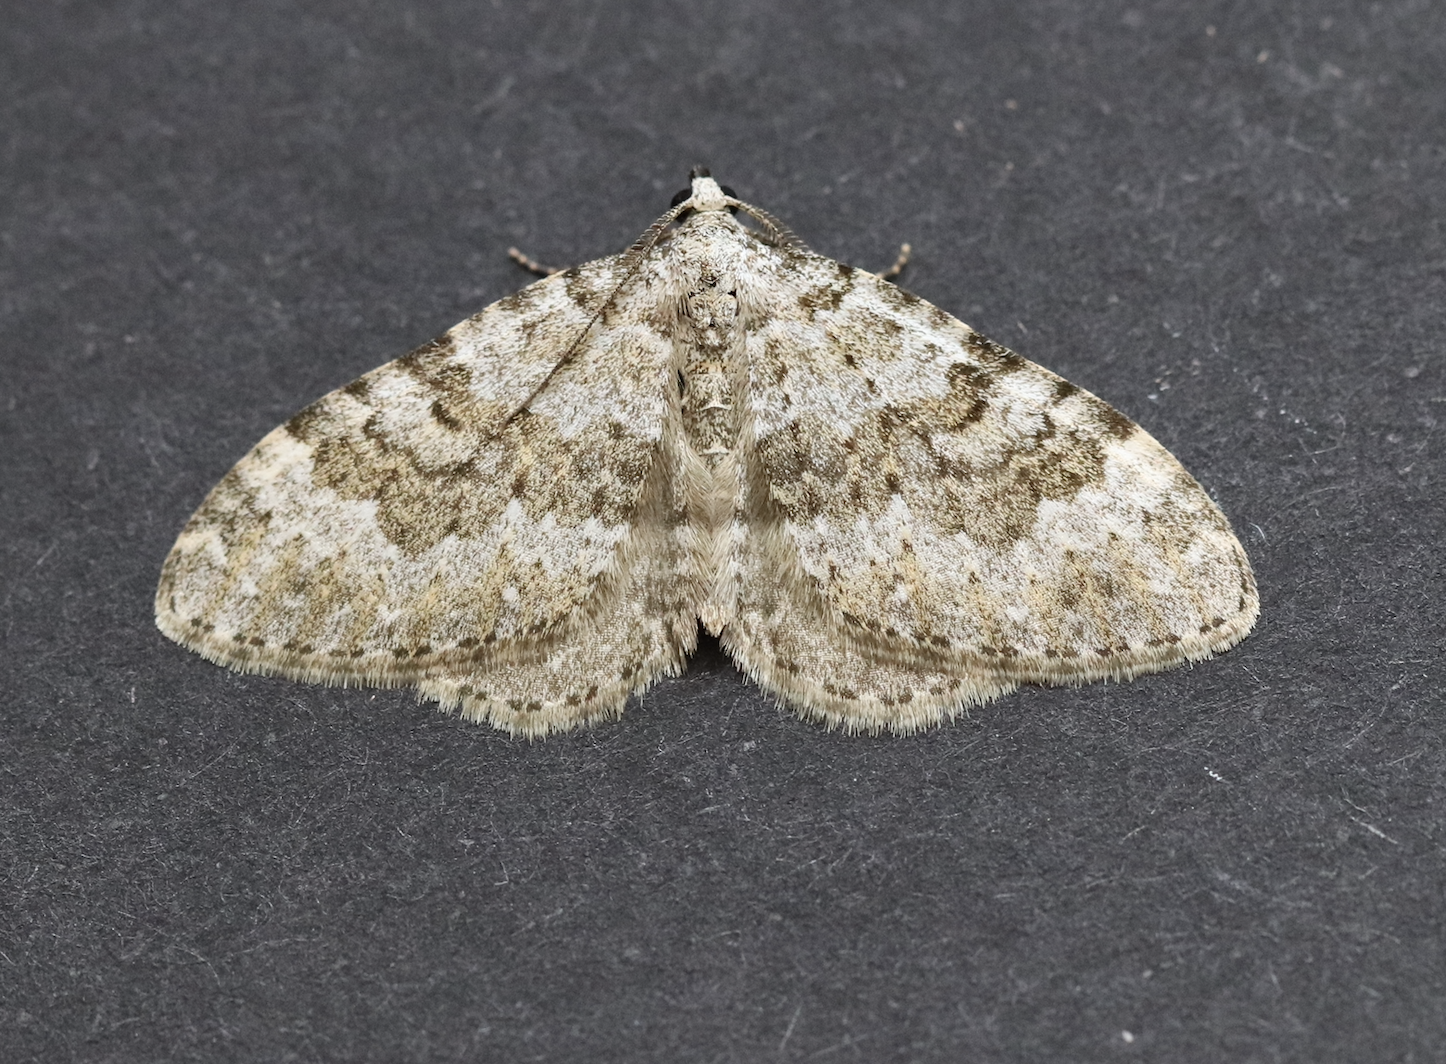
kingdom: Animalia
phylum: Arthropoda
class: Insecta
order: Lepidoptera
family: Geometridae
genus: Nebula
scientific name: Nebula salicata
